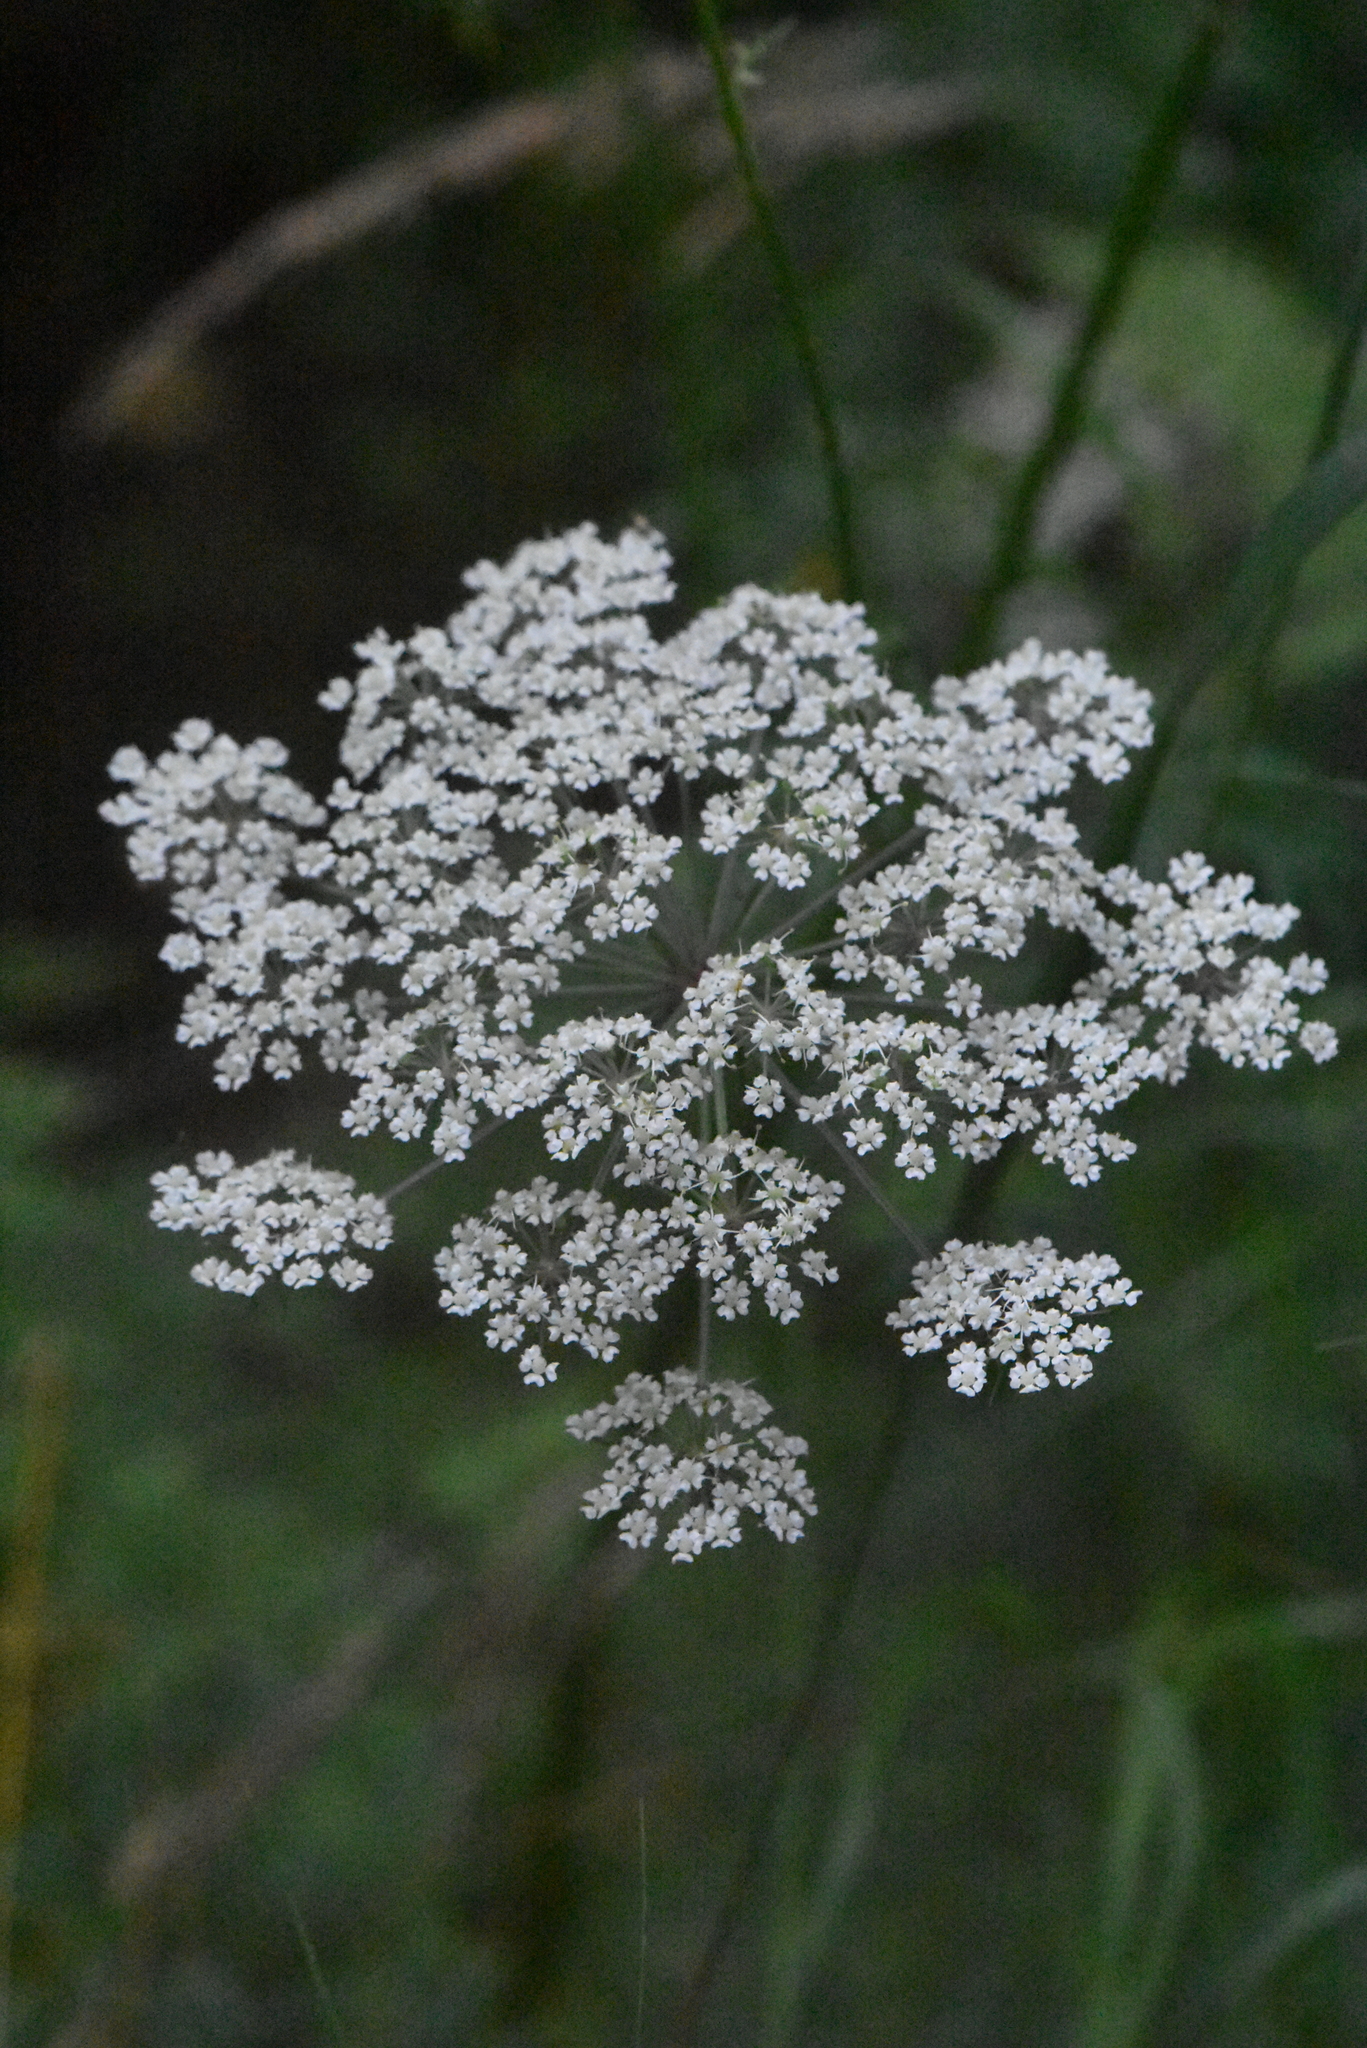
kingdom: Plantae
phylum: Tracheophyta
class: Magnoliopsida
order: Apiales
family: Apiaceae
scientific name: Apiaceae
